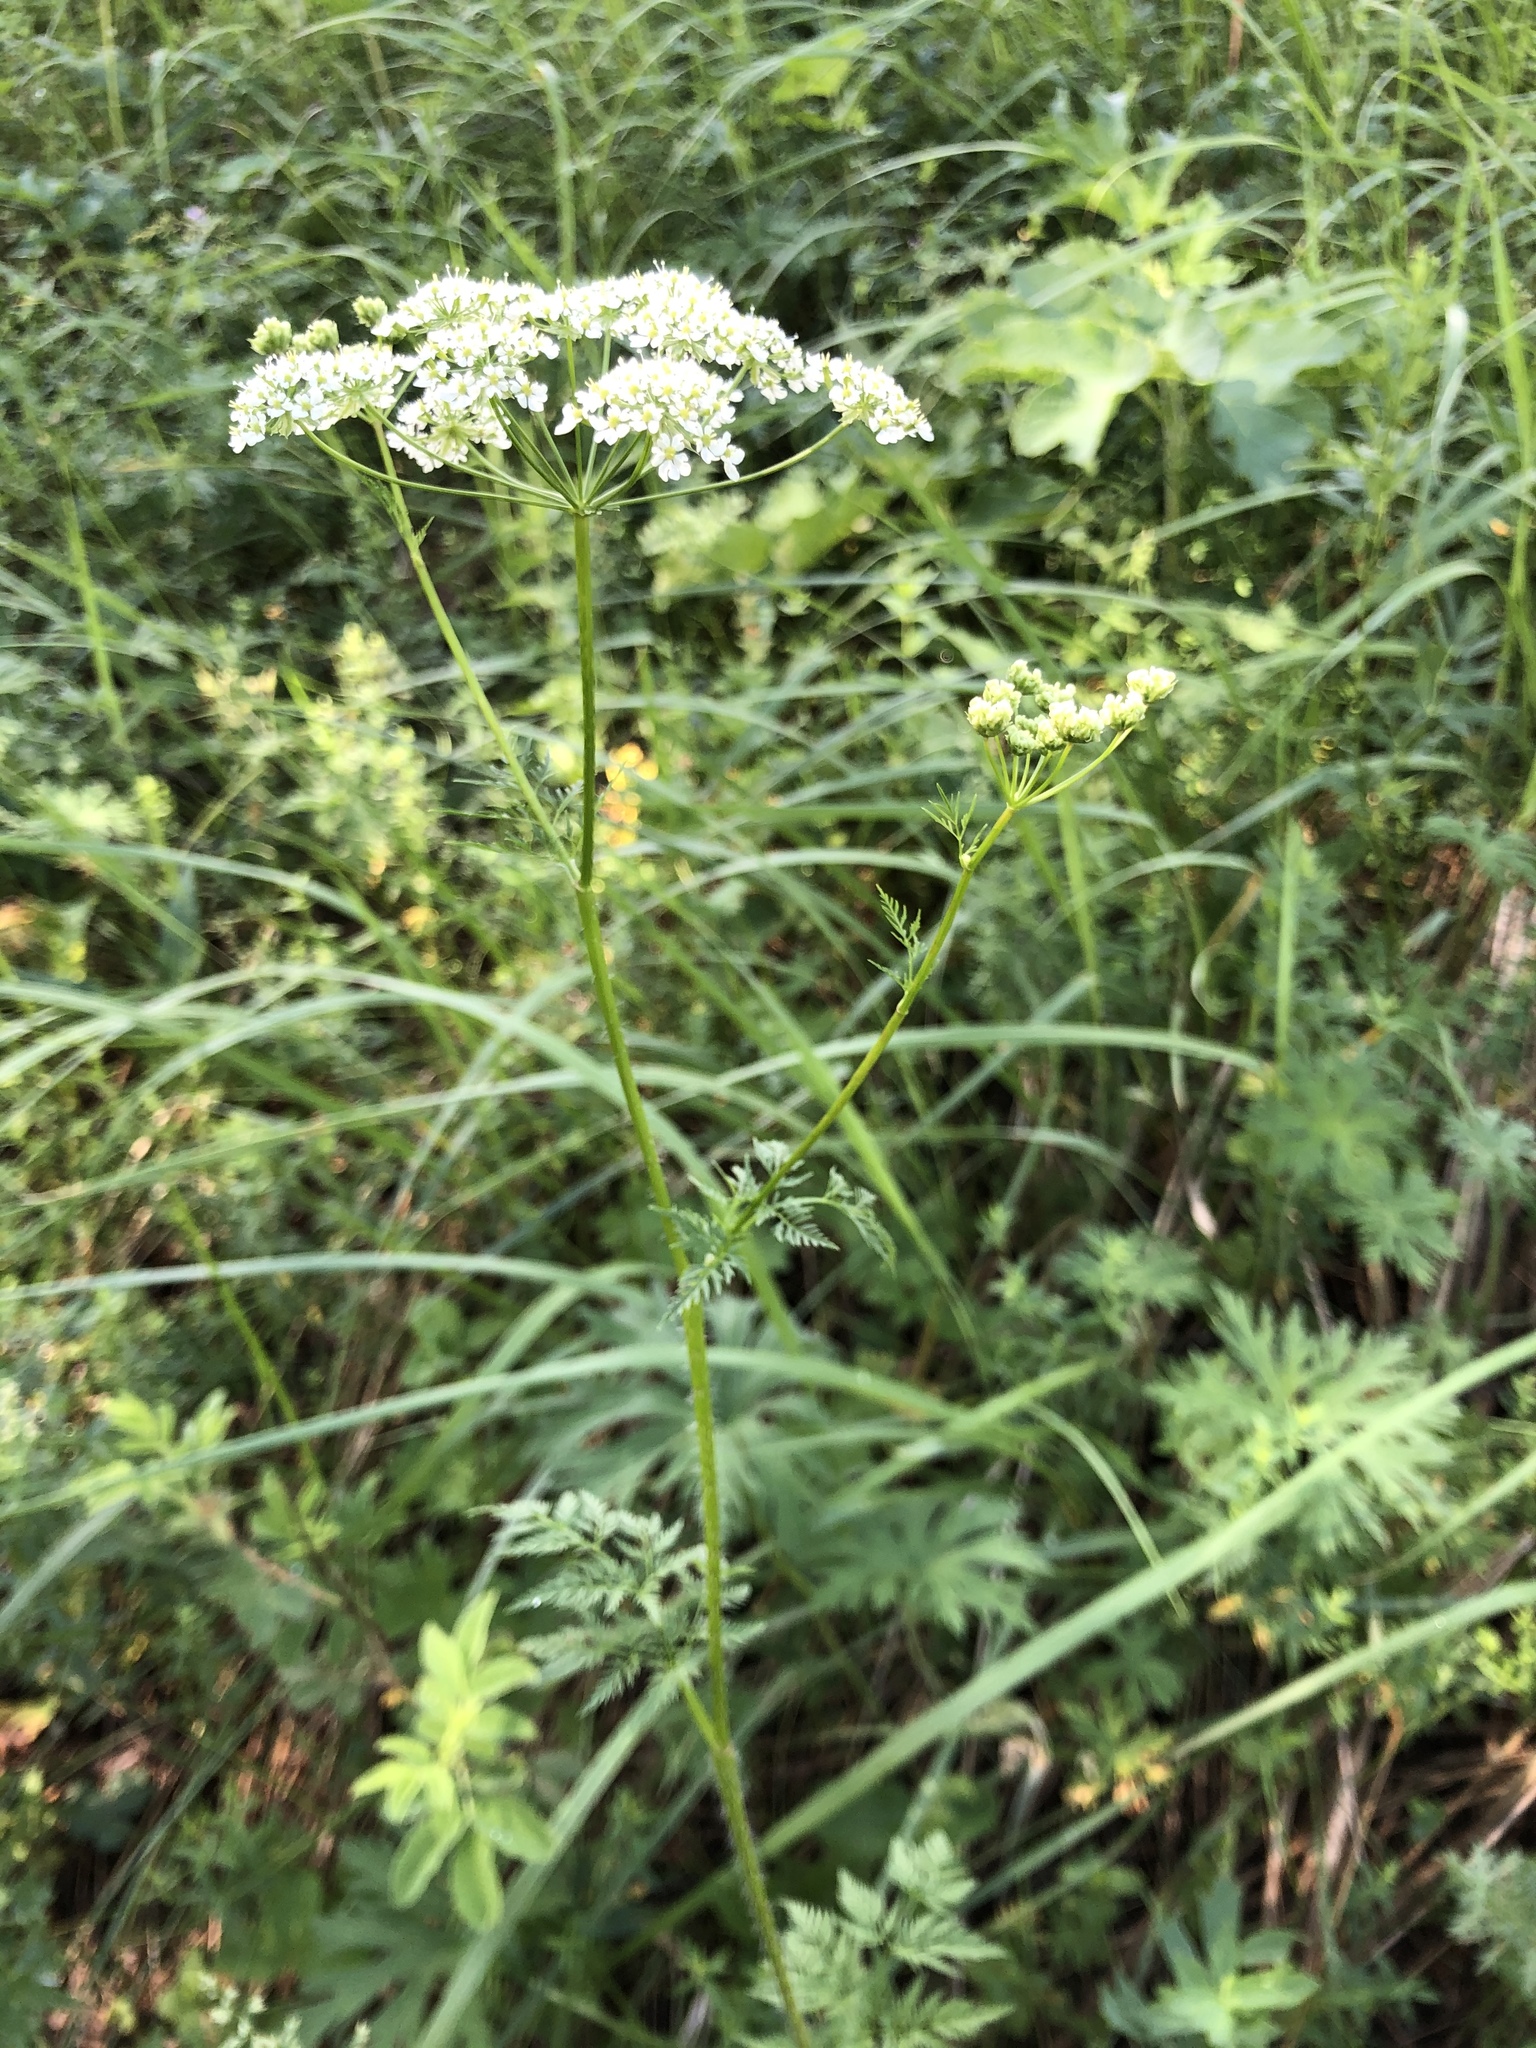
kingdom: Plantae
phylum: Tracheophyta
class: Magnoliopsida
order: Apiales
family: Apiaceae
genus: Chaerophyllum
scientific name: Chaerophyllum prescottii
